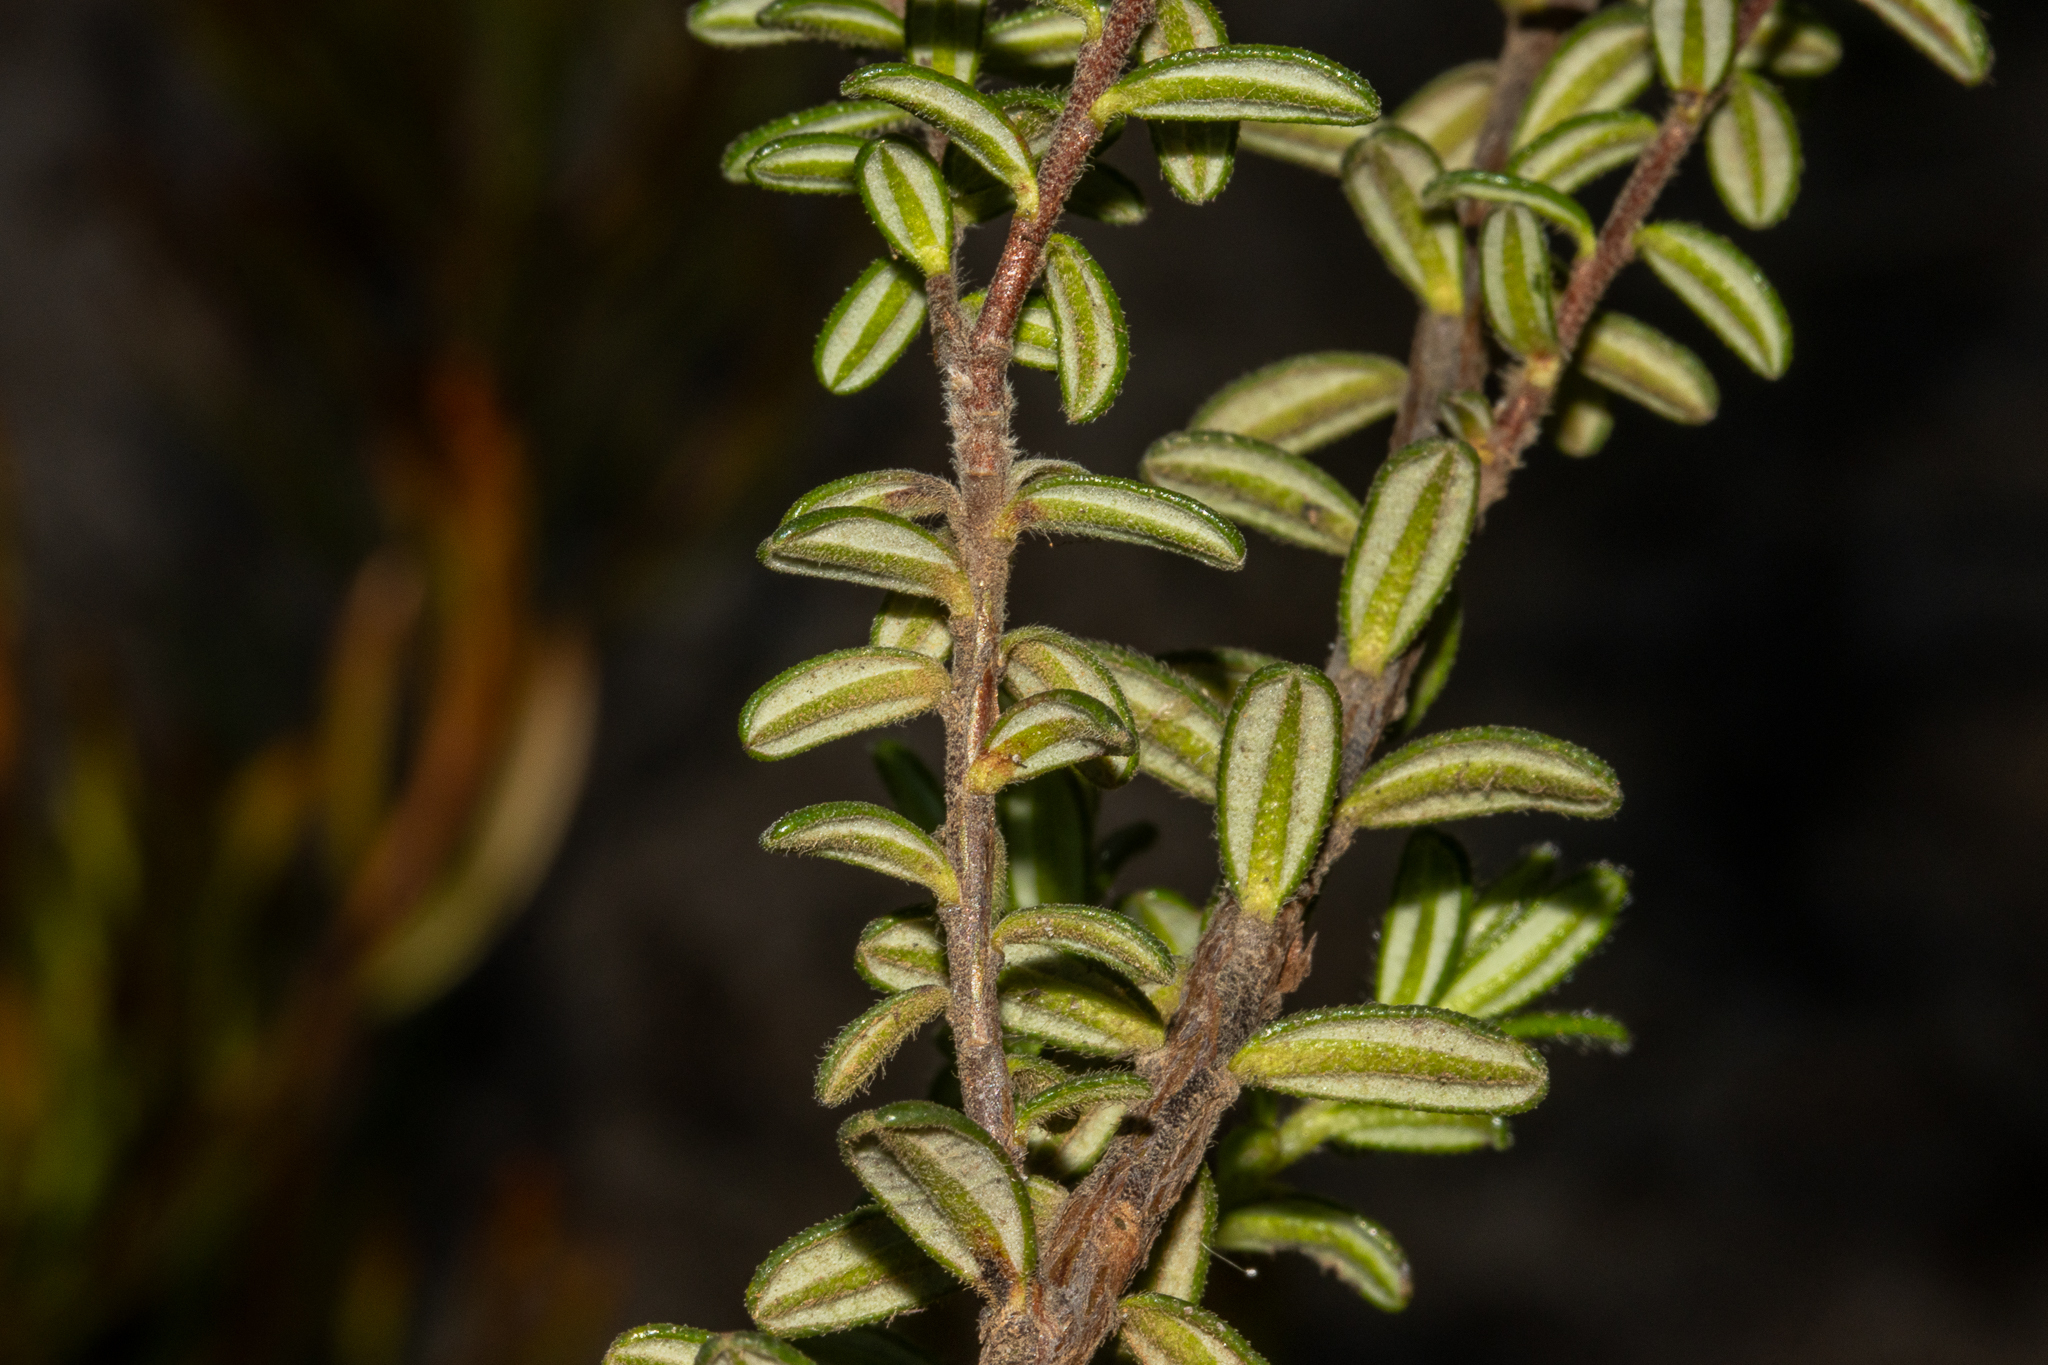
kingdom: Plantae
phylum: Tracheophyta
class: Magnoliopsida
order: Dilleniales
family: Dilleniaceae
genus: Hibbertia
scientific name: Hibbertia platyphylla
